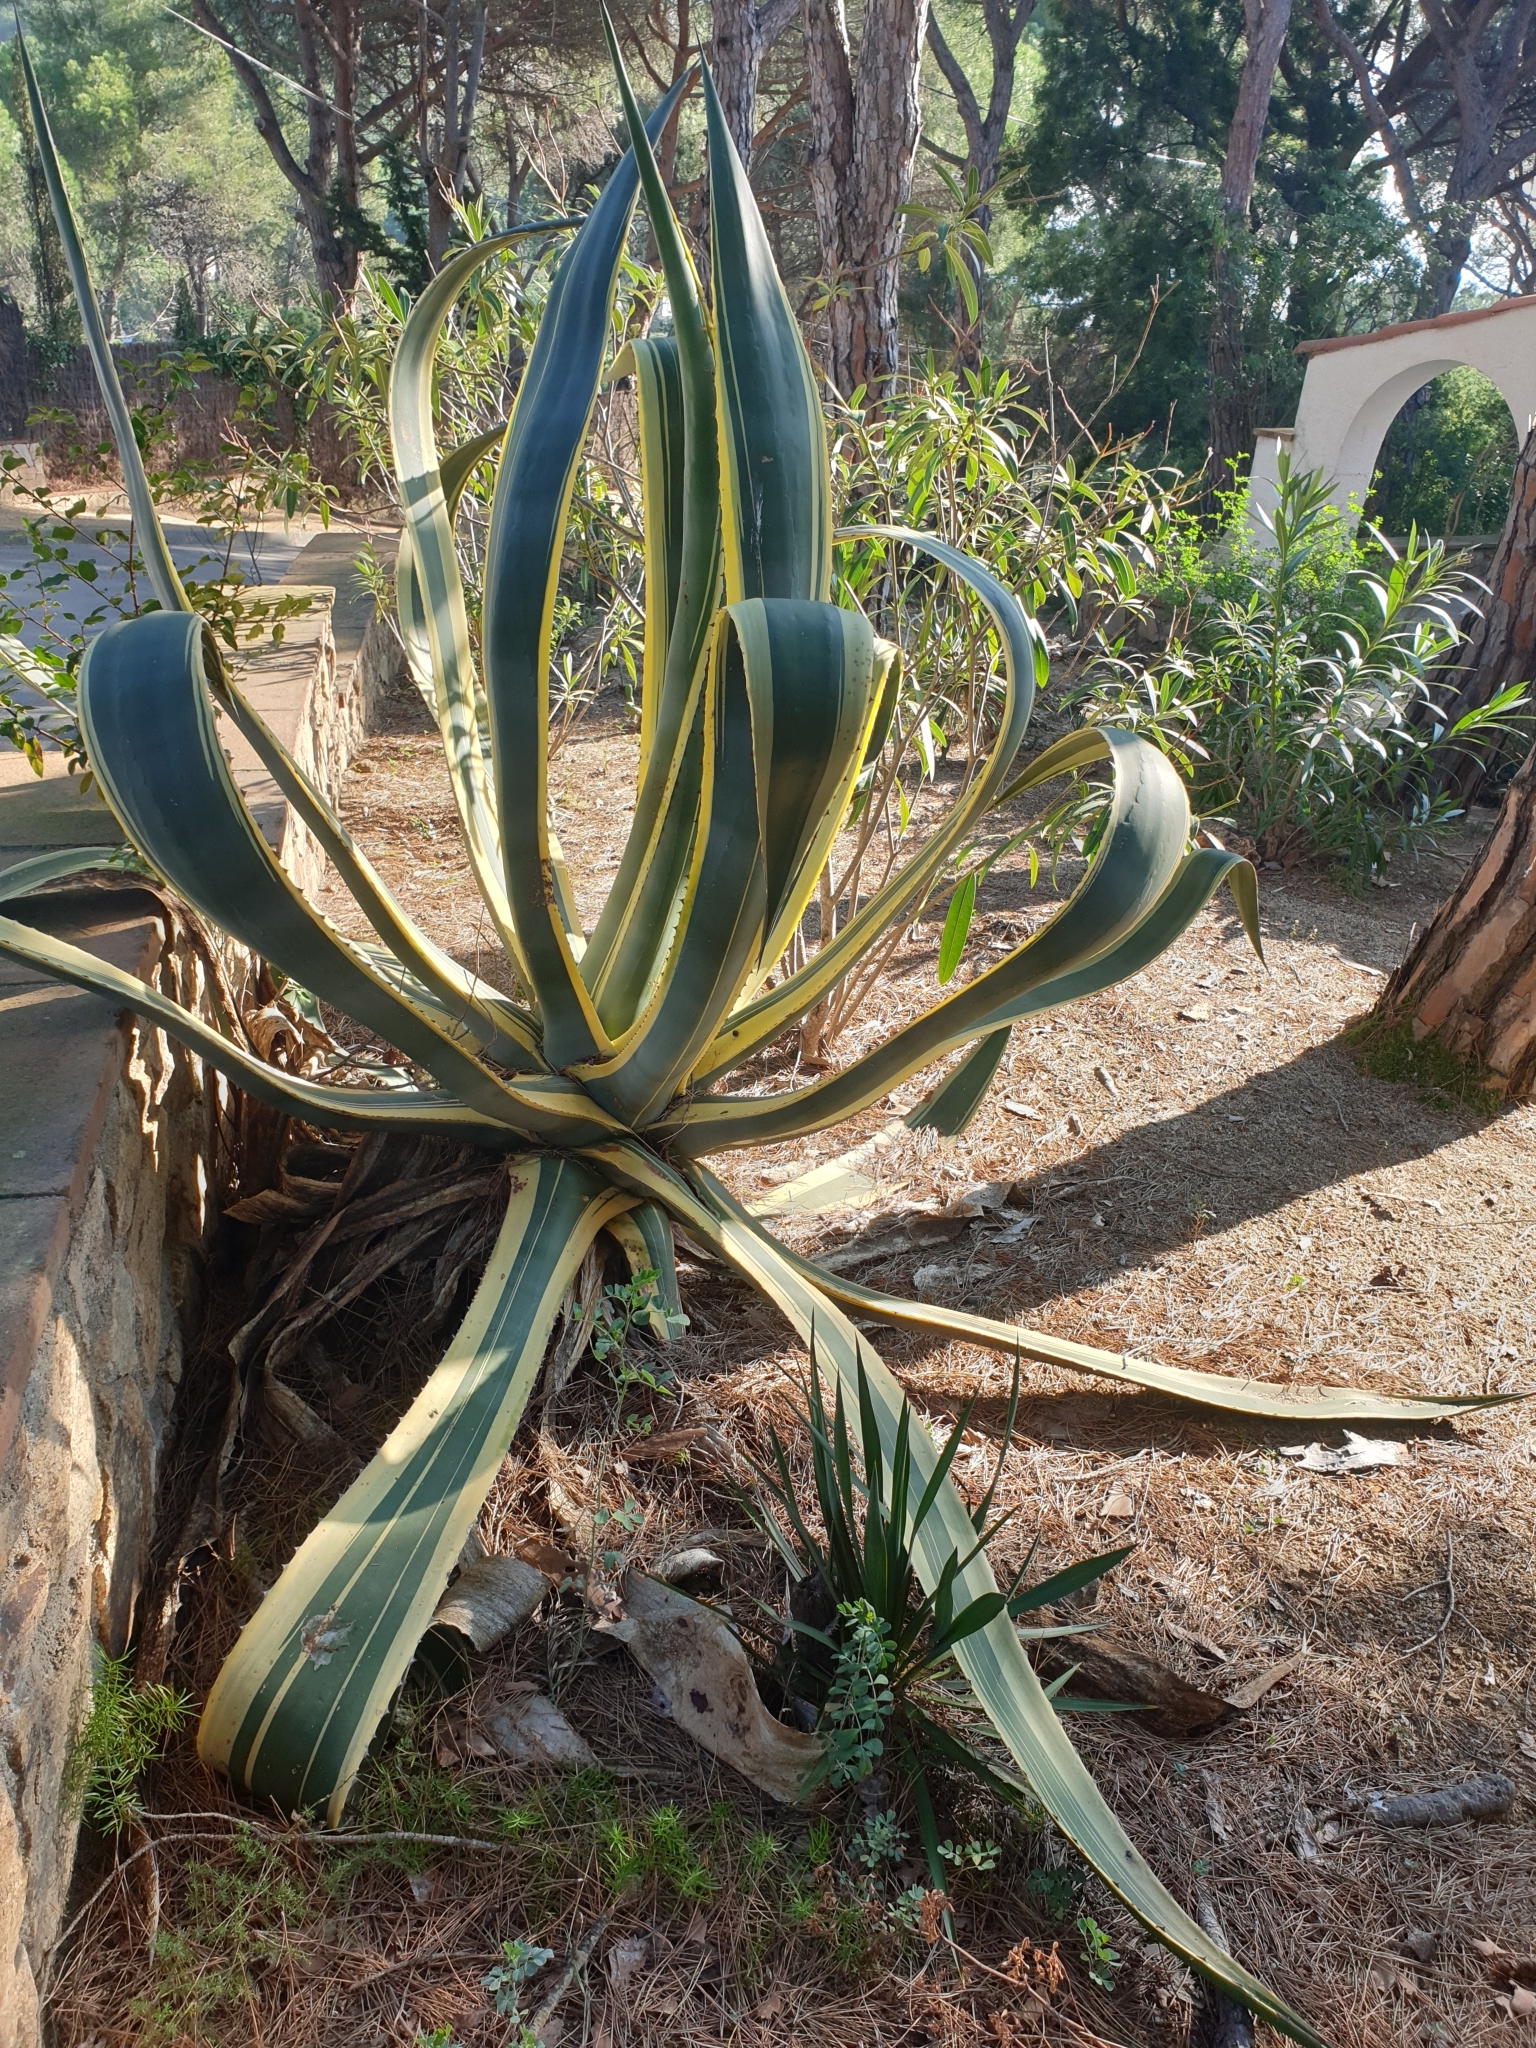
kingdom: Plantae
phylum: Tracheophyta
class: Liliopsida
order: Asparagales
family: Asparagaceae
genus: Agave
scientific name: Agave americana
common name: Centuryplant
